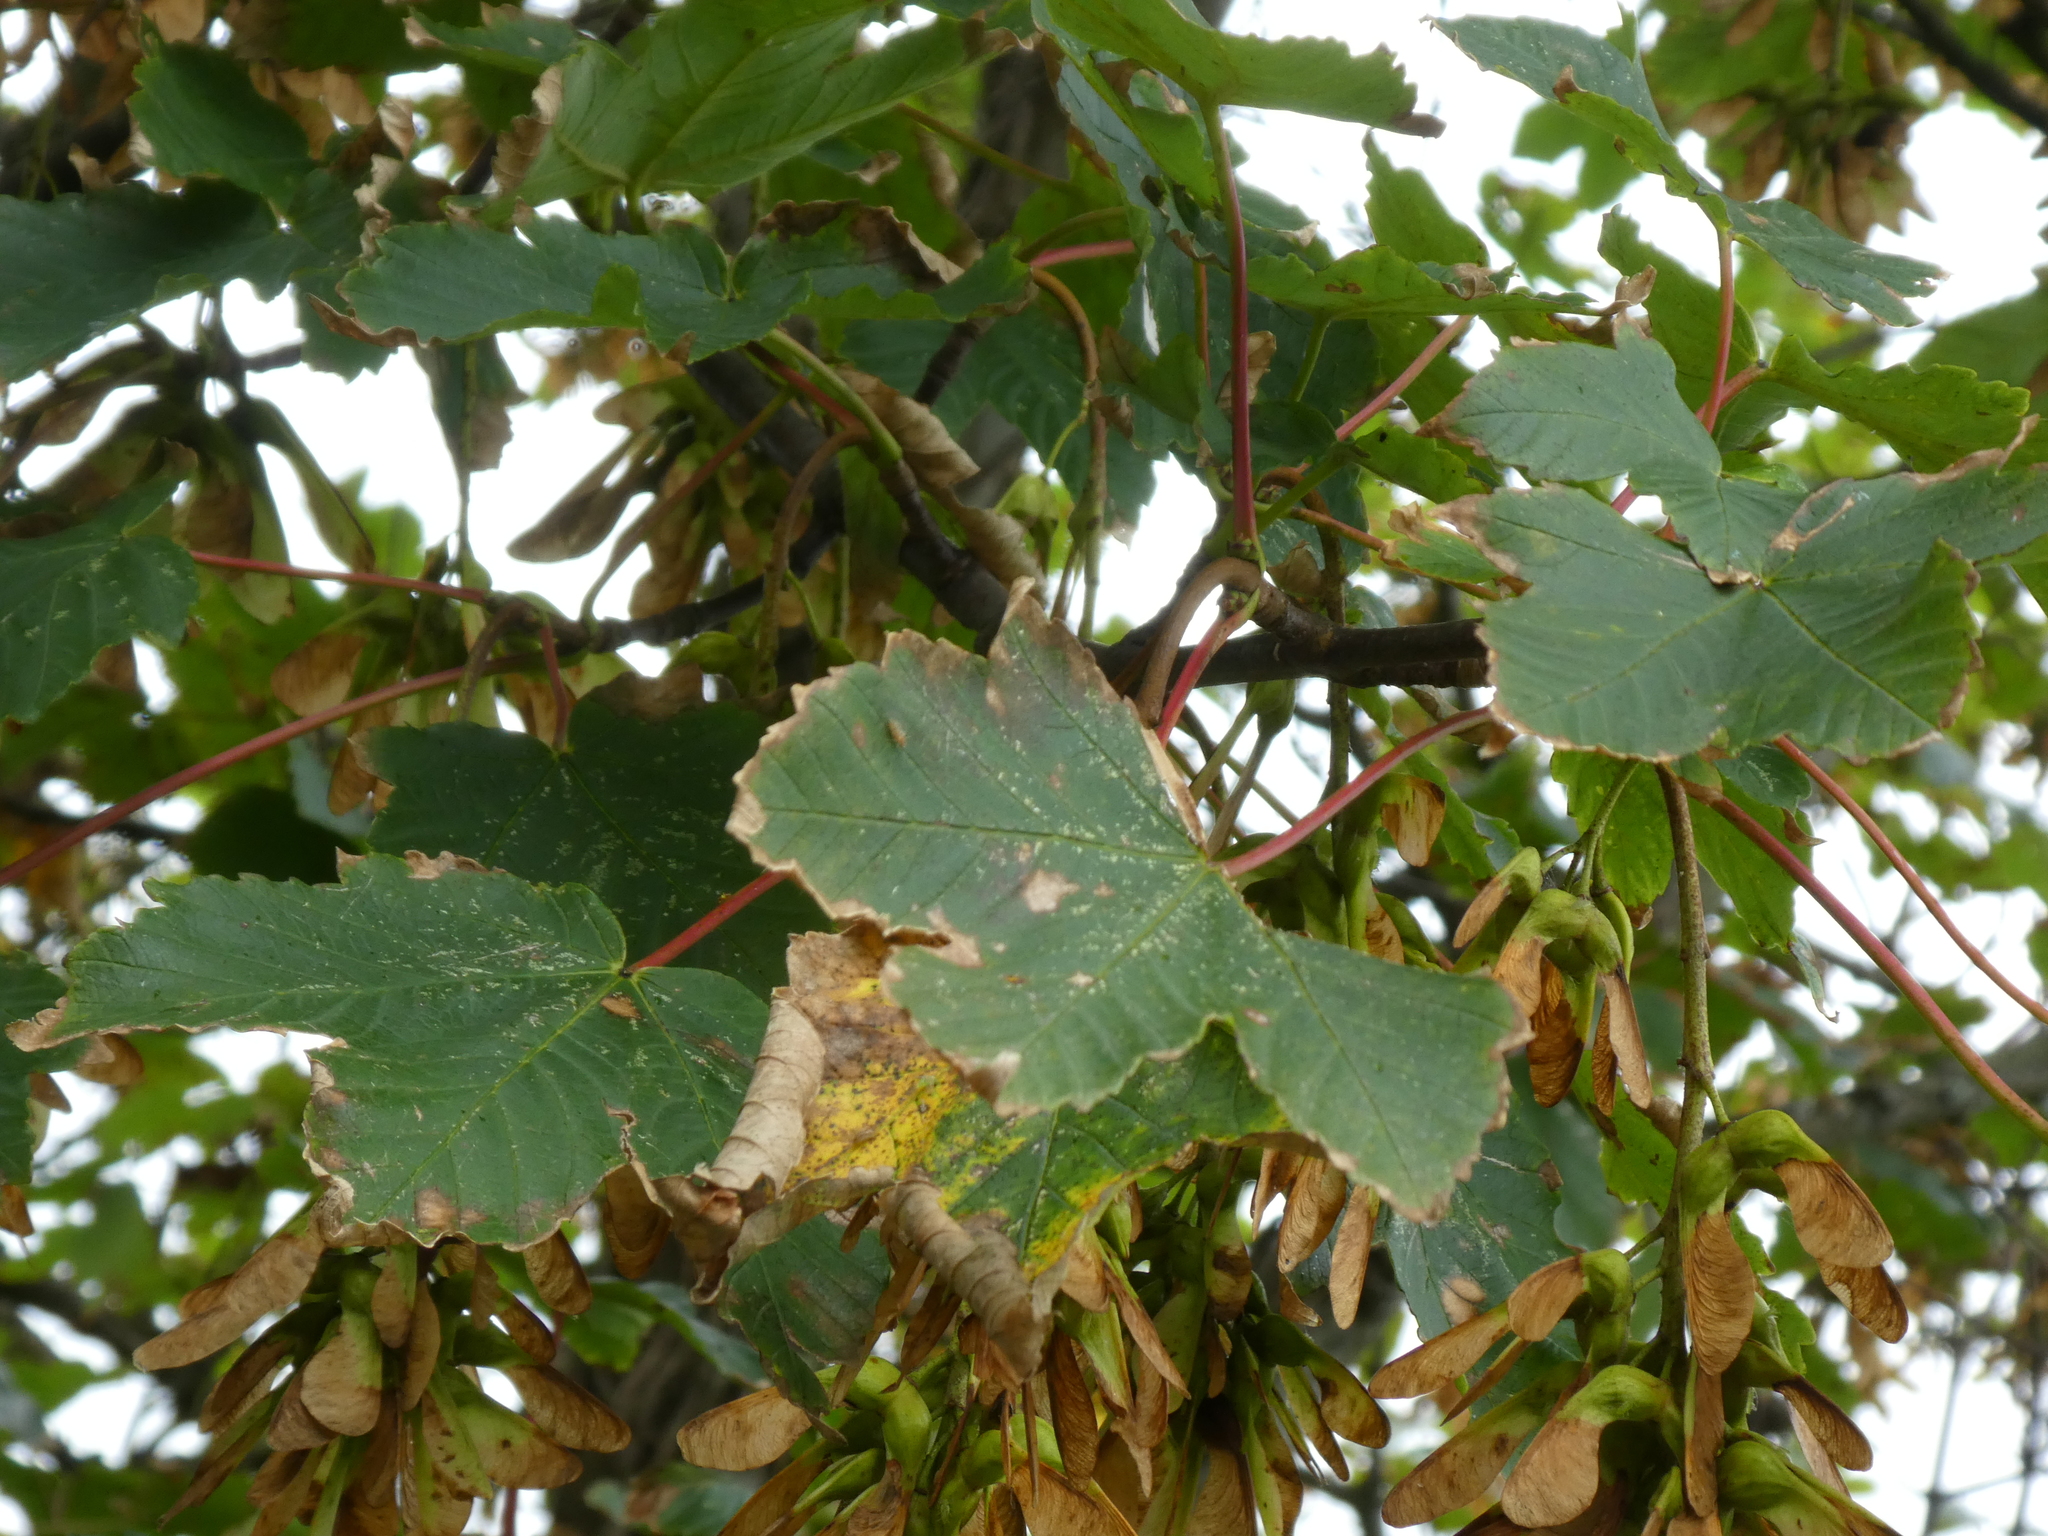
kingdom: Plantae
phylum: Tracheophyta
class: Magnoliopsida
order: Sapindales
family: Sapindaceae
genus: Acer
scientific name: Acer pseudoplatanus
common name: Sycamore
